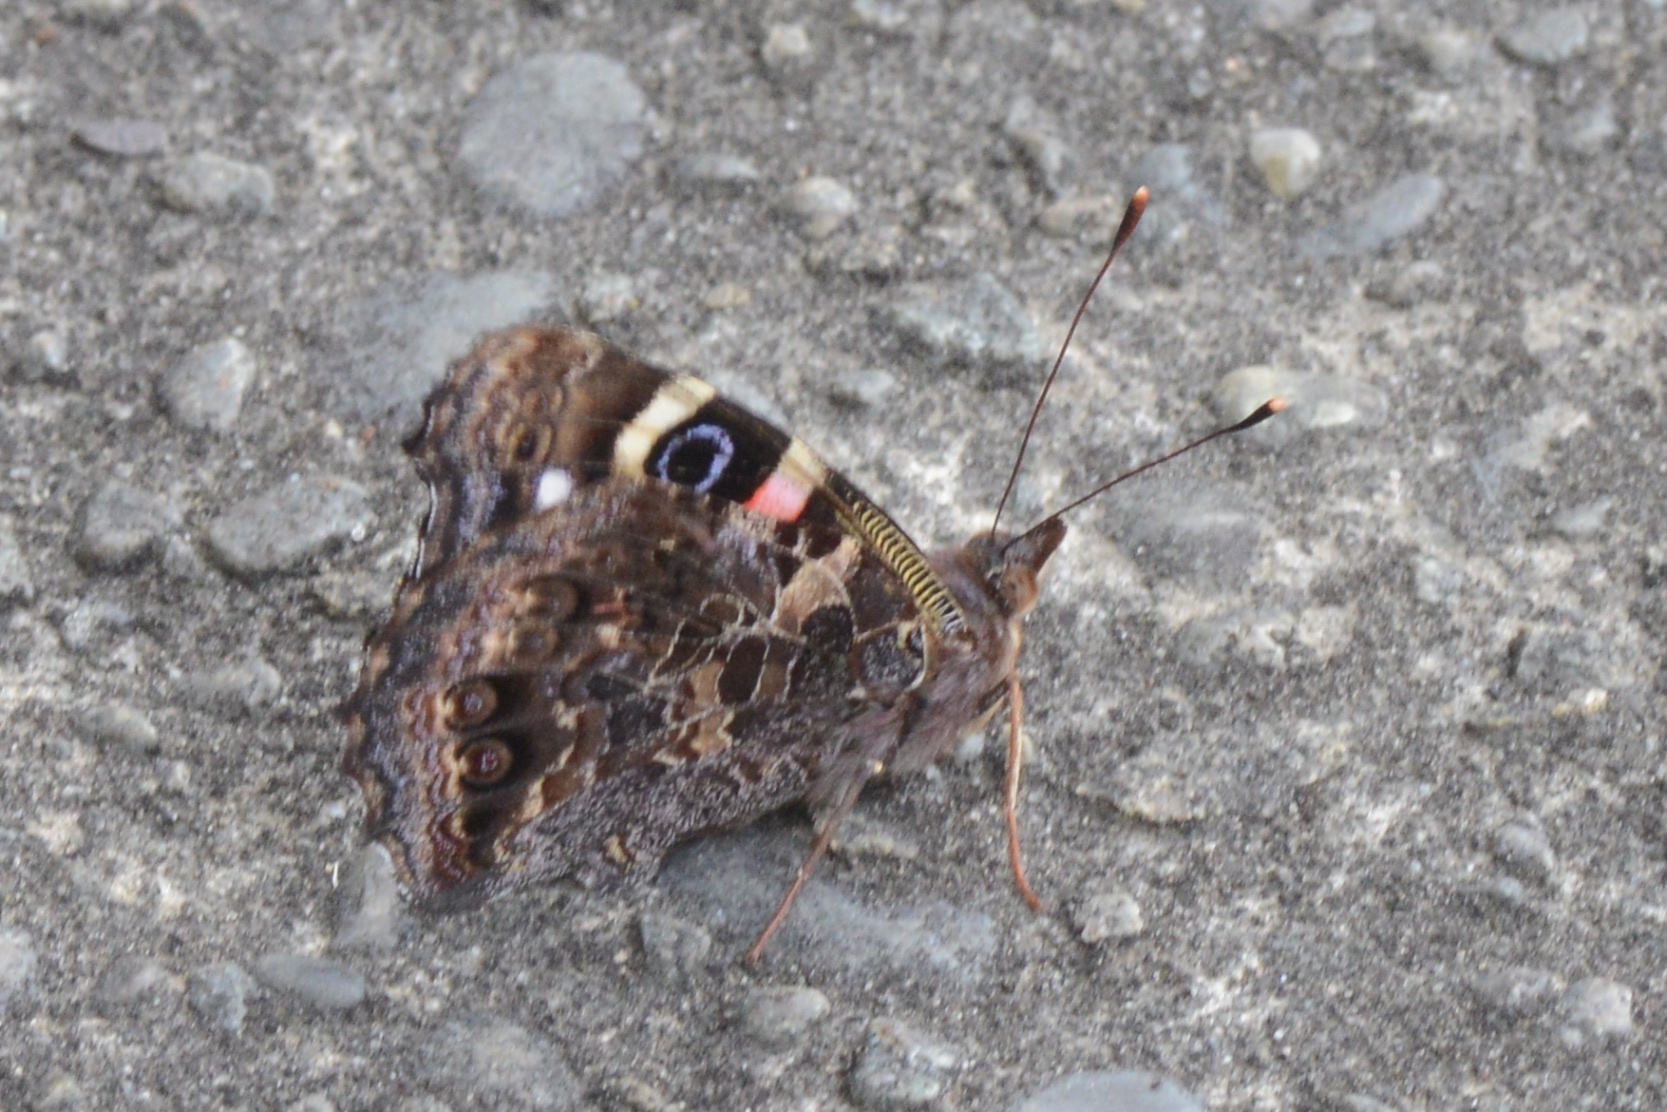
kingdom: Animalia
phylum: Arthropoda
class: Insecta
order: Lepidoptera
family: Nymphalidae
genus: Vanessa
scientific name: Vanessa gonerilla
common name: New zealand red admiral
